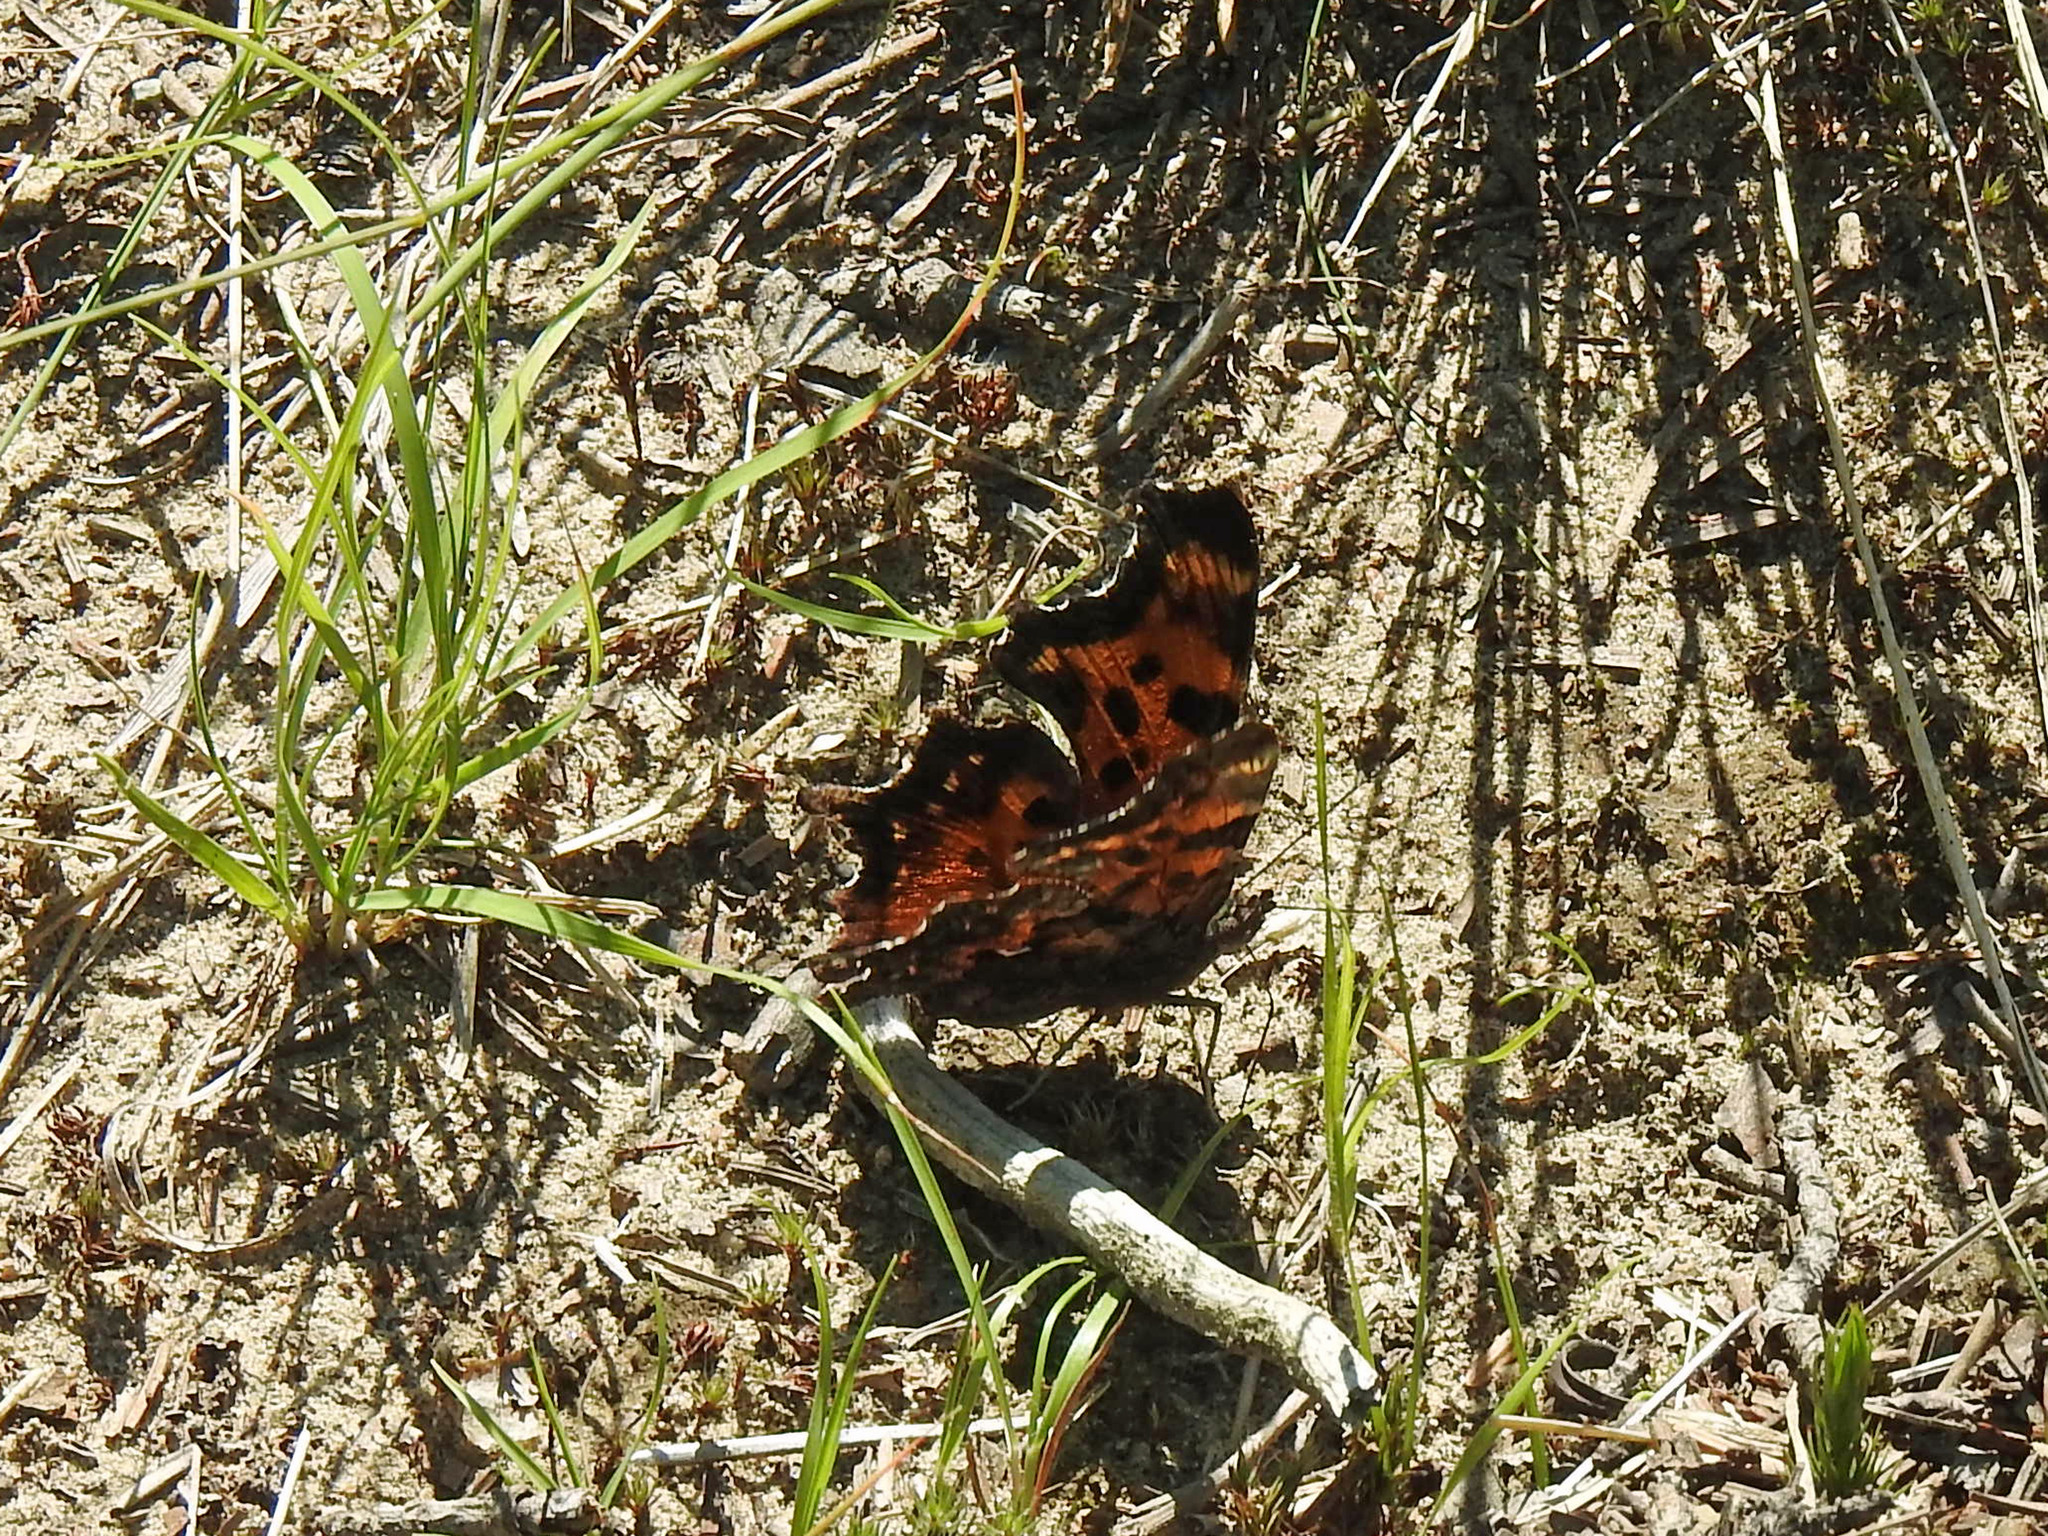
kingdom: Animalia
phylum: Arthropoda
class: Insecta
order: Lepidoptera
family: Nymphalidae
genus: Polygonia
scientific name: Polygonia faunus
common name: Green comma
